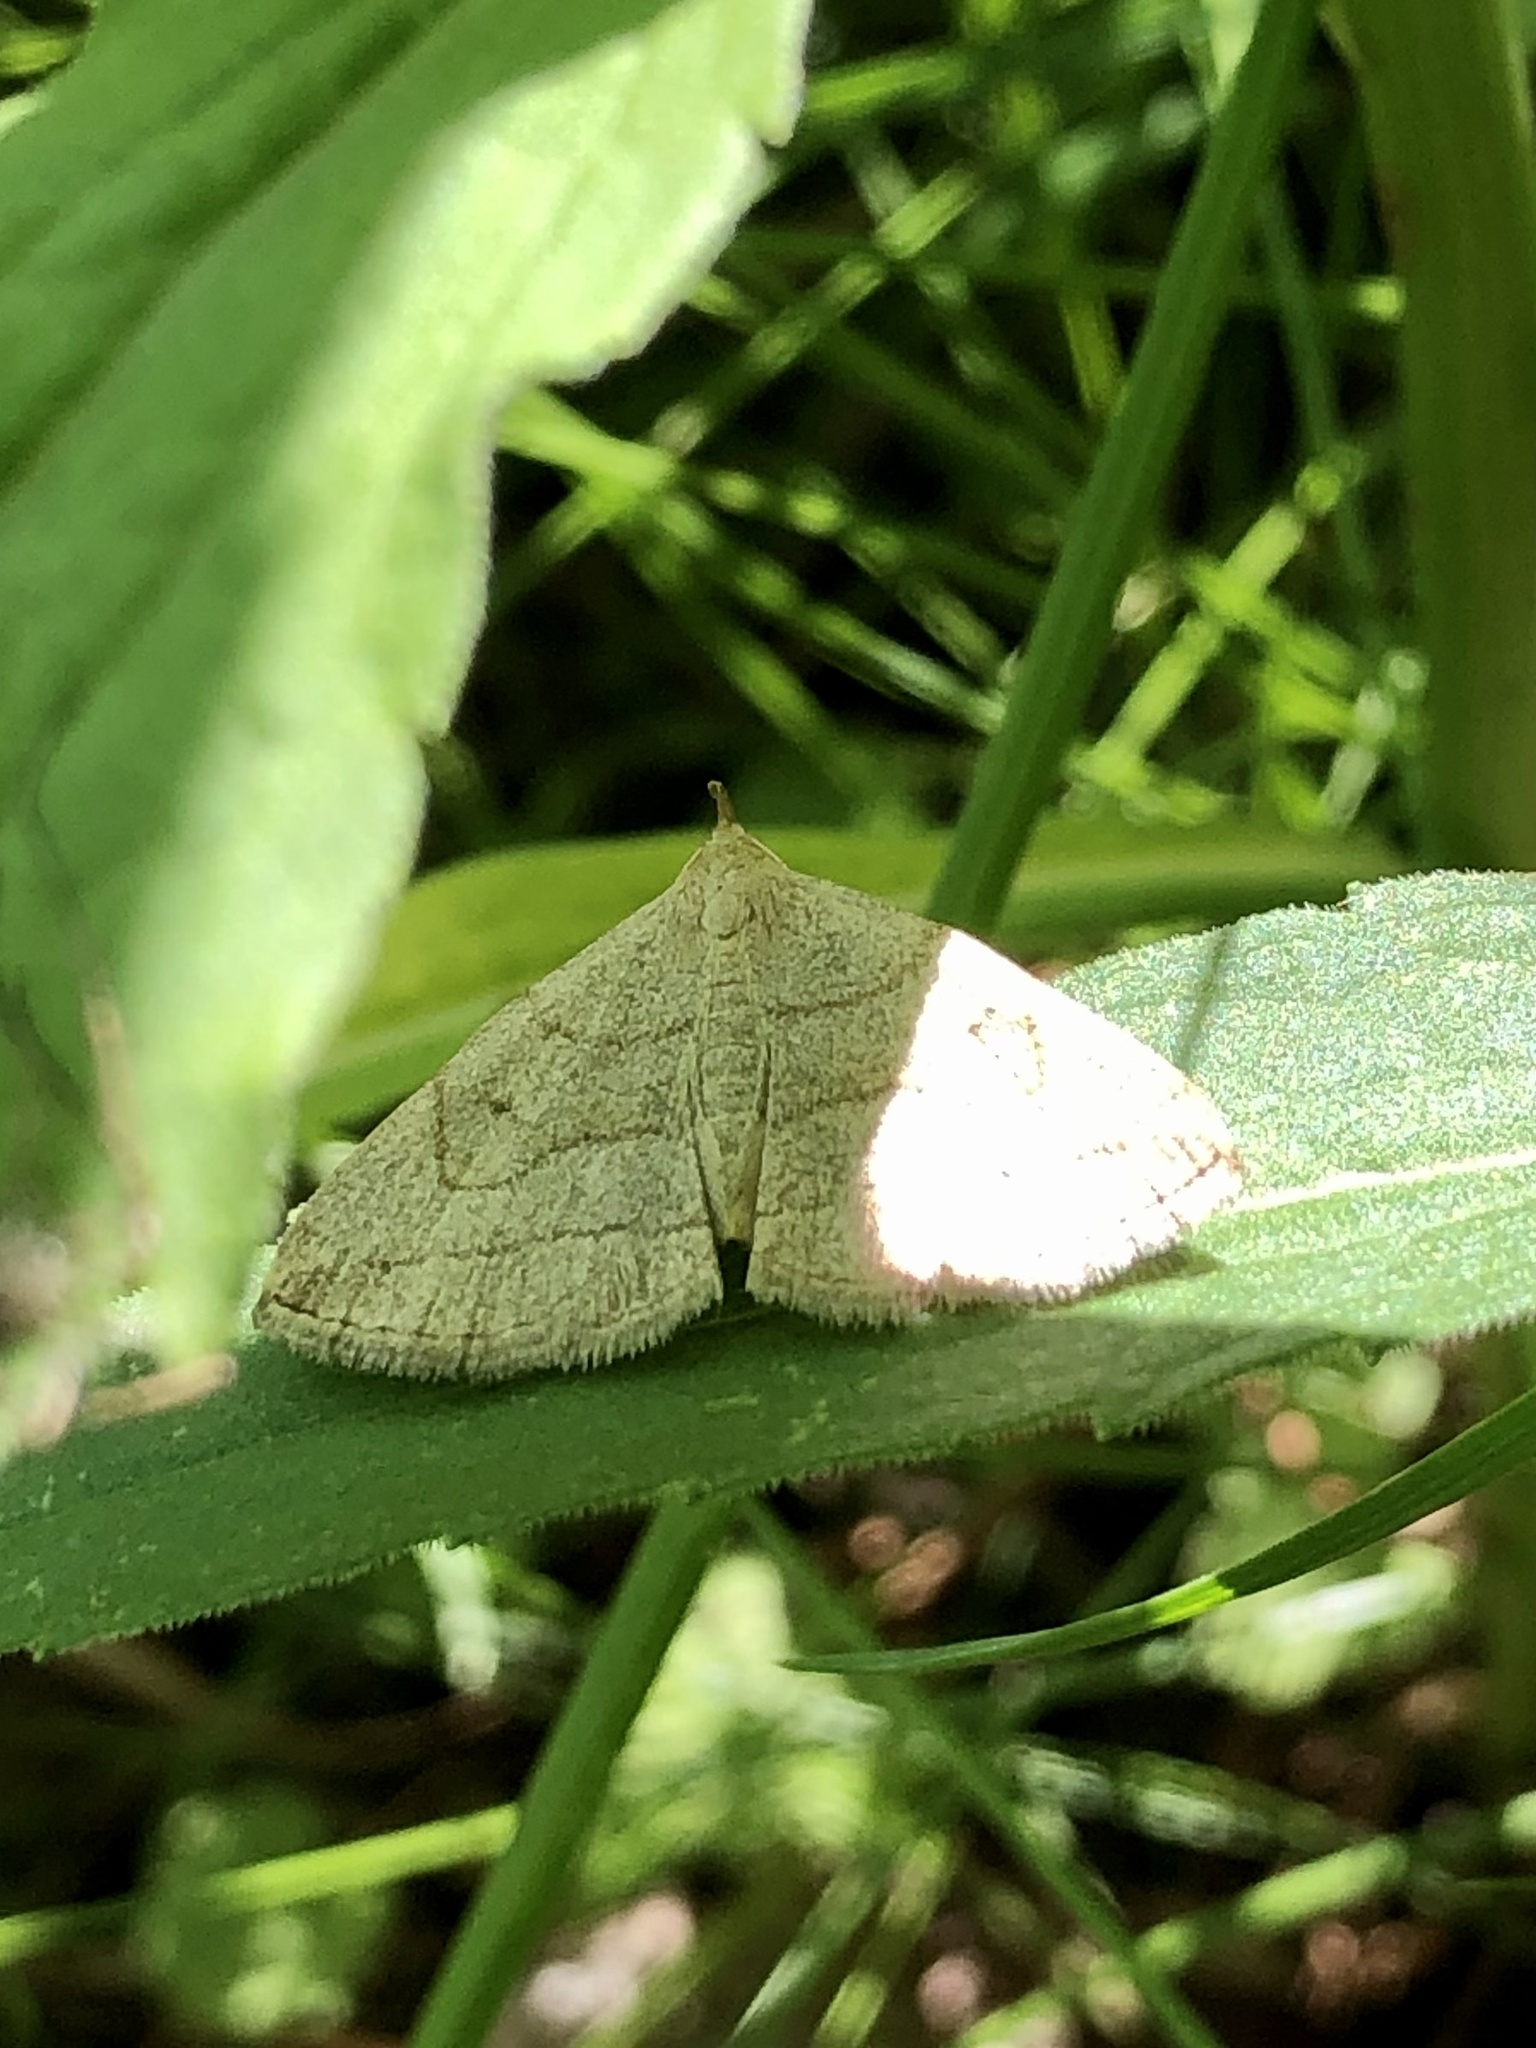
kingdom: Animalia
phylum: Arthropoda
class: Insecta
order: Lepidoptera
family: Erebidae
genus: Zanclognatha
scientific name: Zanclognatha pedipilalis
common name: Grayish fan-foot
